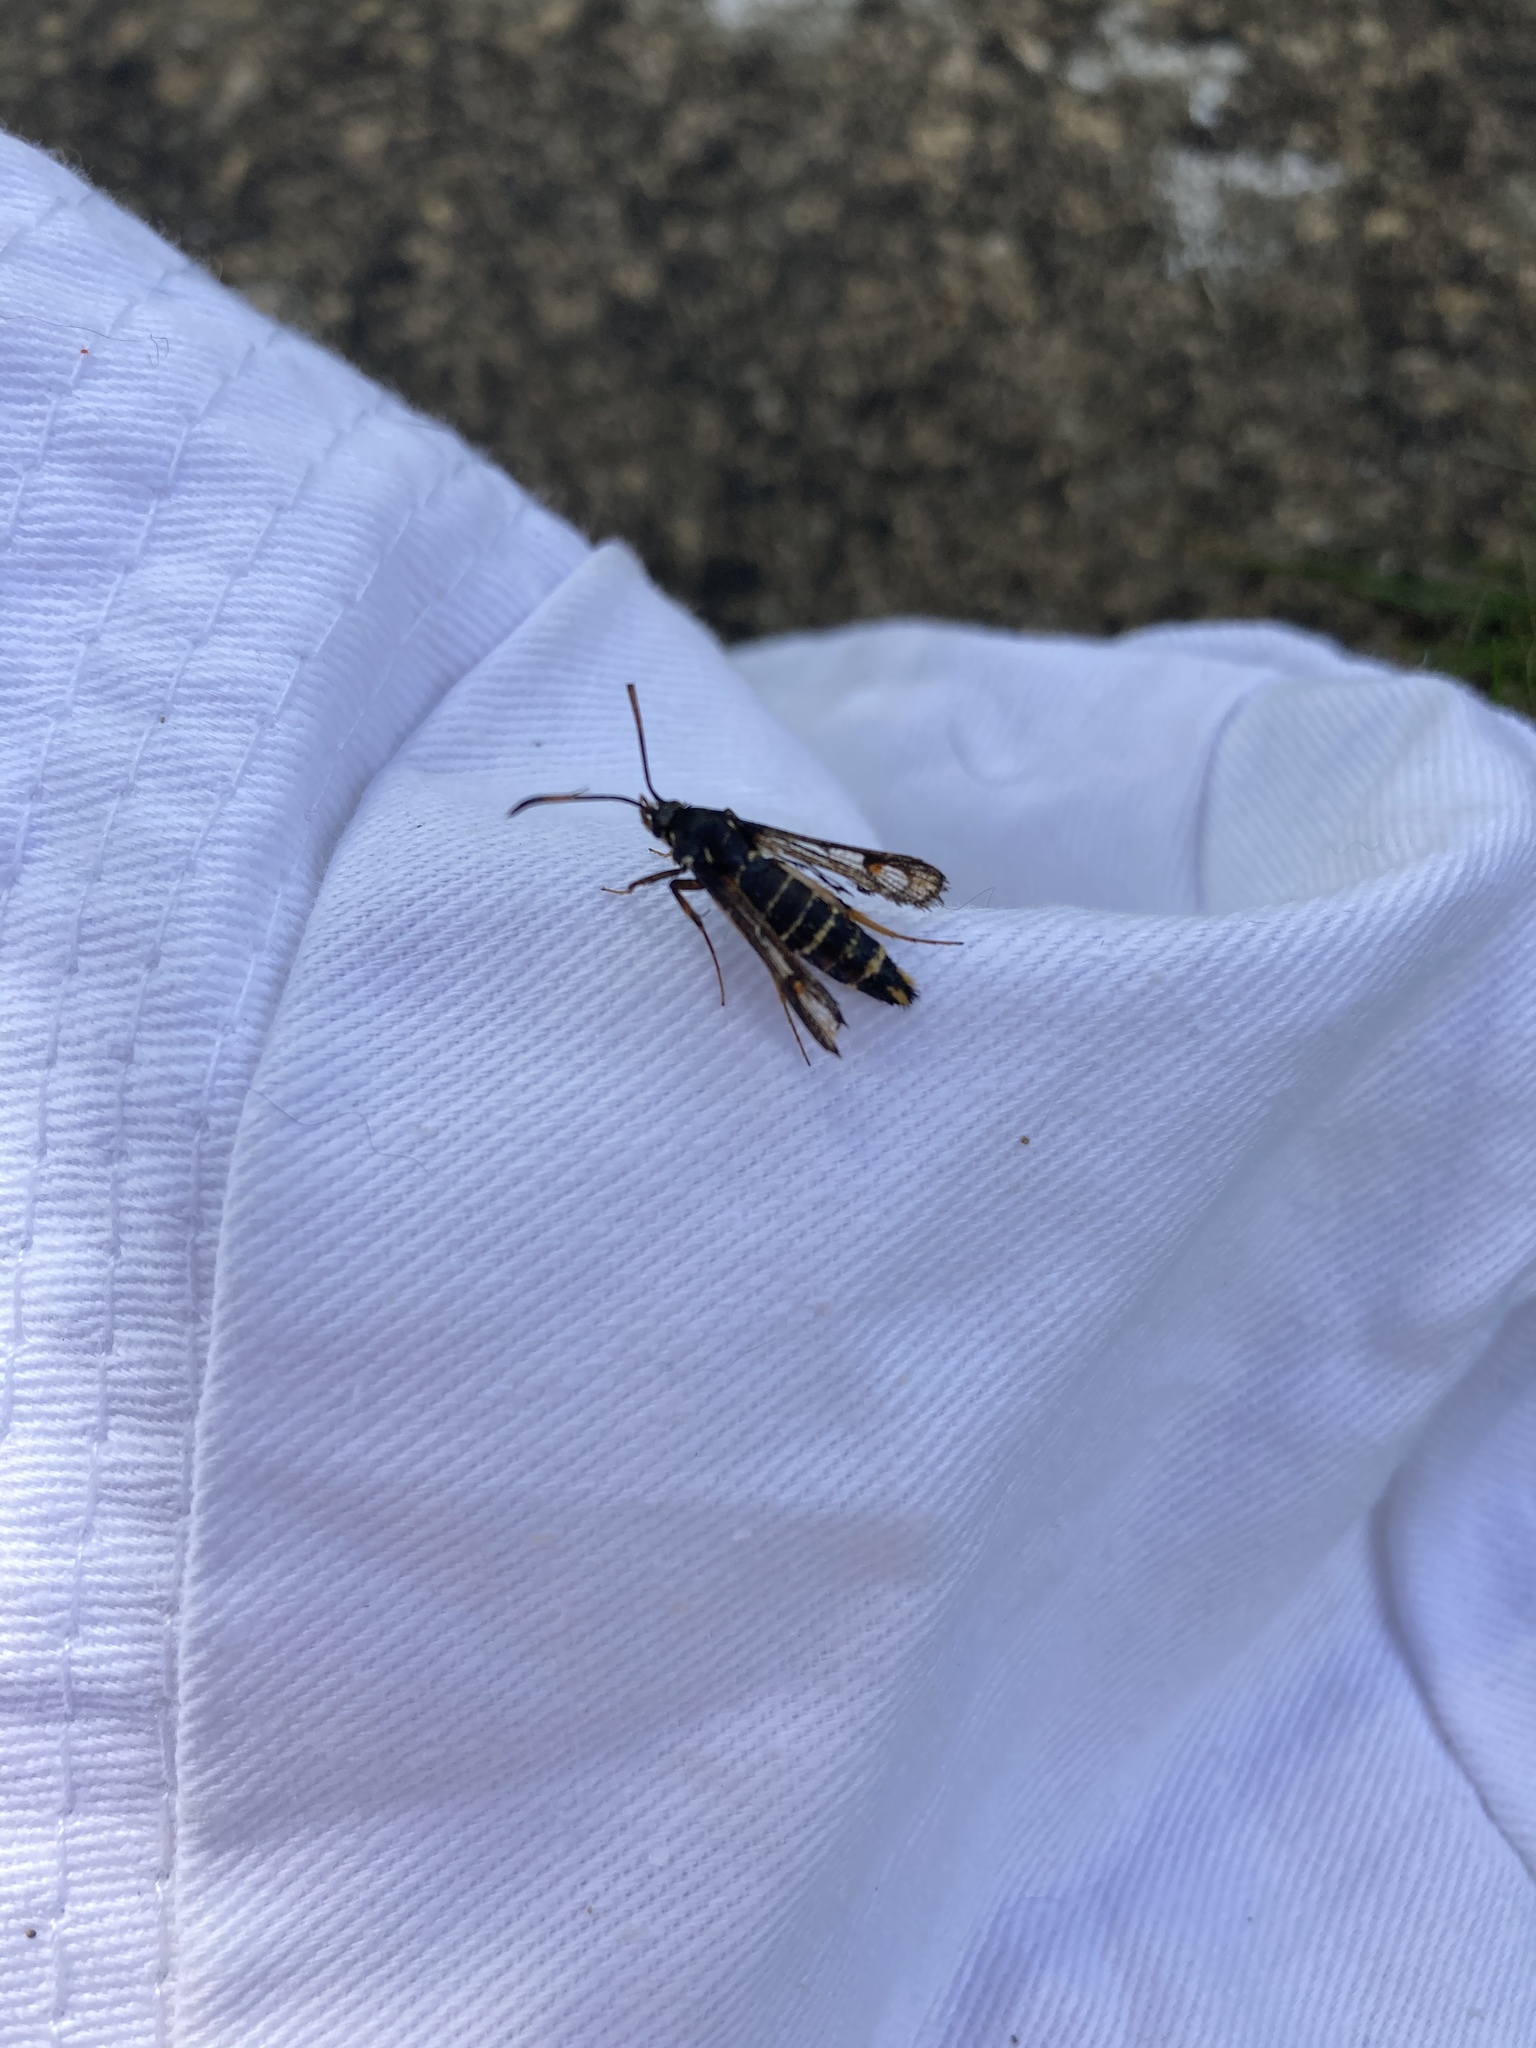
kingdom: Animalia
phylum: Arthropoda
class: Insecta
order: Lepidoptera
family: Sesiidae
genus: Bembecia
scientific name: Bembecia ichneumoniformis
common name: Six-belted clearwing
